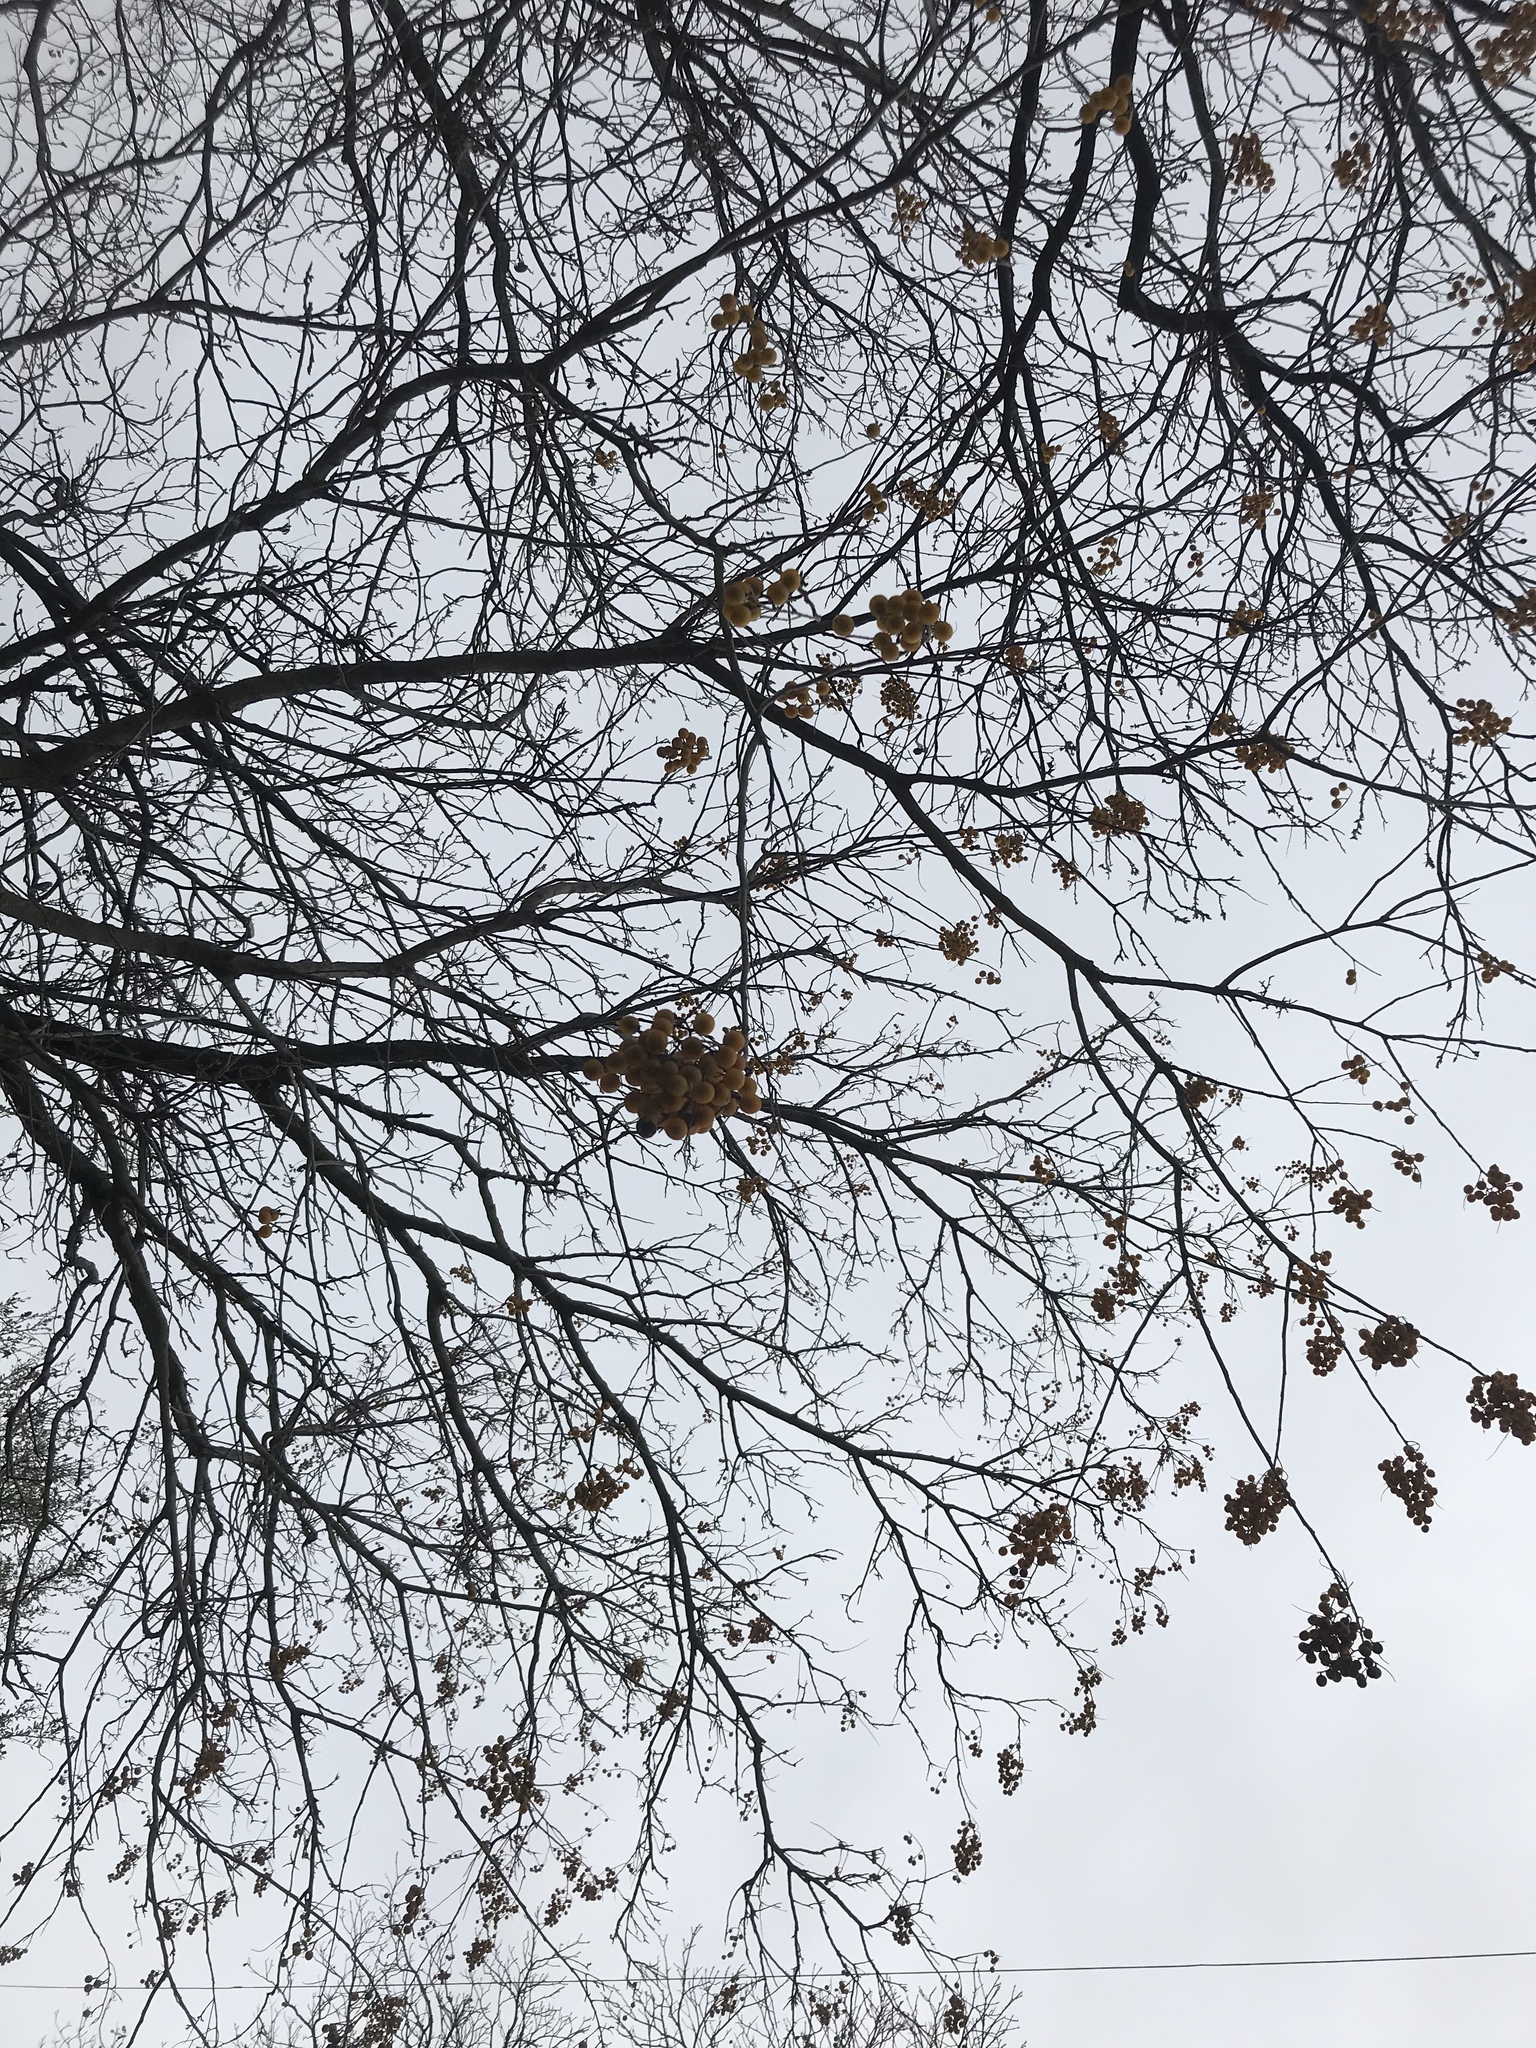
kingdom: Plantae
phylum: Tracheophyta
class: Magnoliopsida
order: Sapindales
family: Sapindaceae
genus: Sapindus
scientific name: Sapindus drummondii
